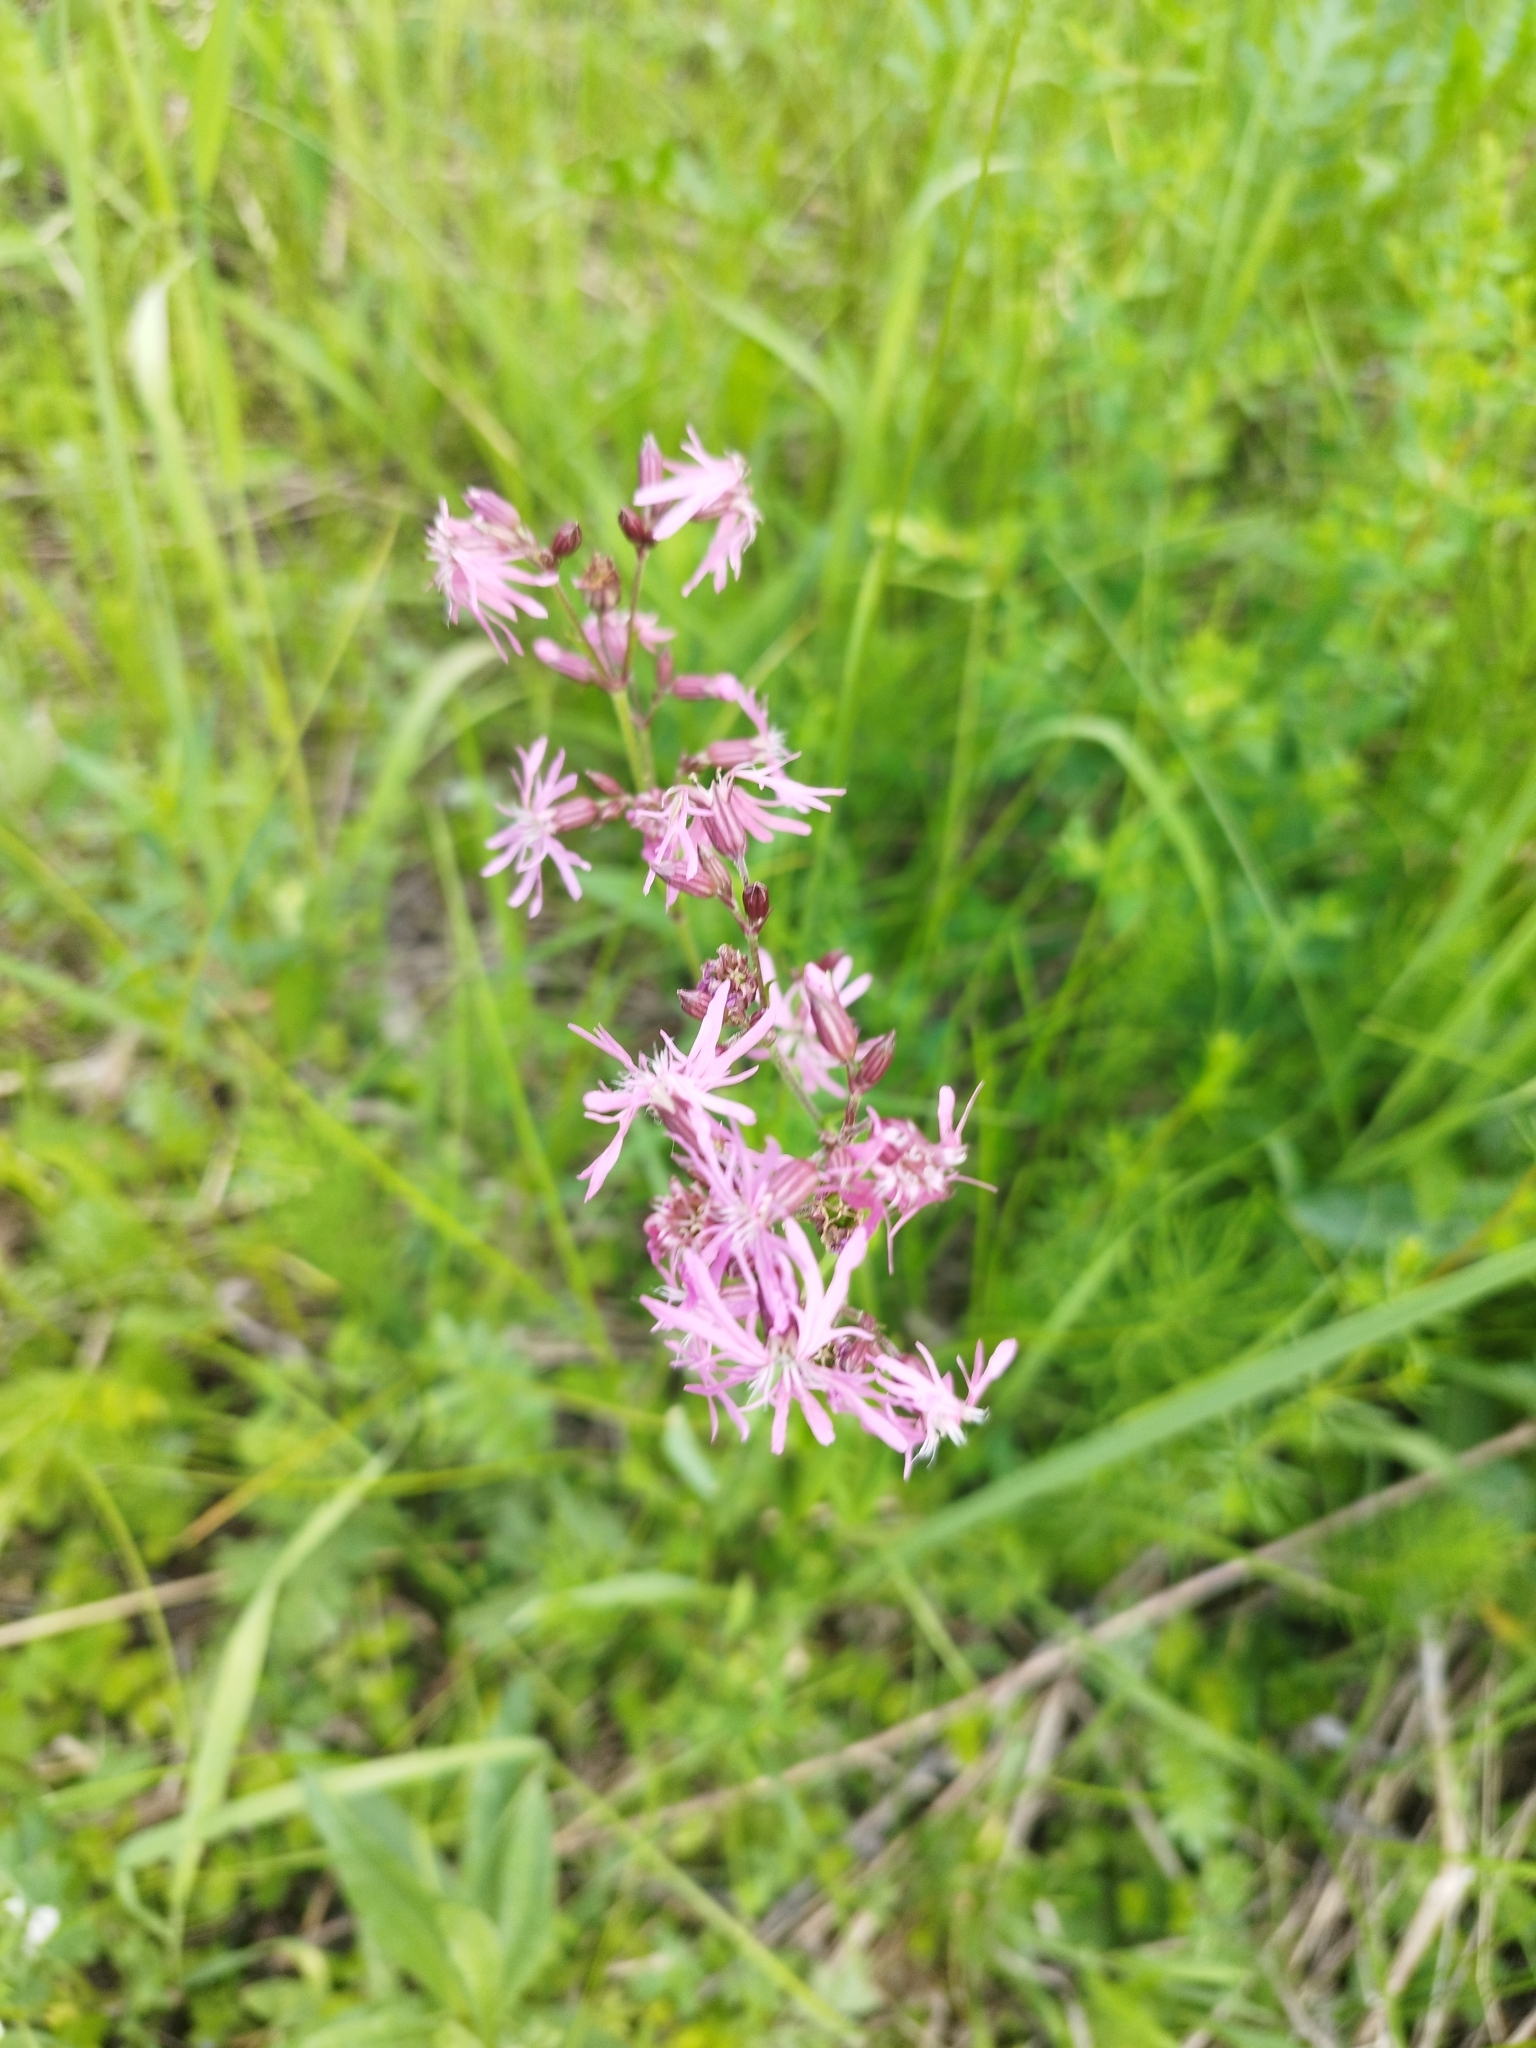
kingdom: Plantae
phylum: Tracheophyta
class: Magnoliopsida
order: Caryophyllales
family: Caryophyllaceae
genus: Silene
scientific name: Silene flos-cuculi
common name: Ragged-robin
